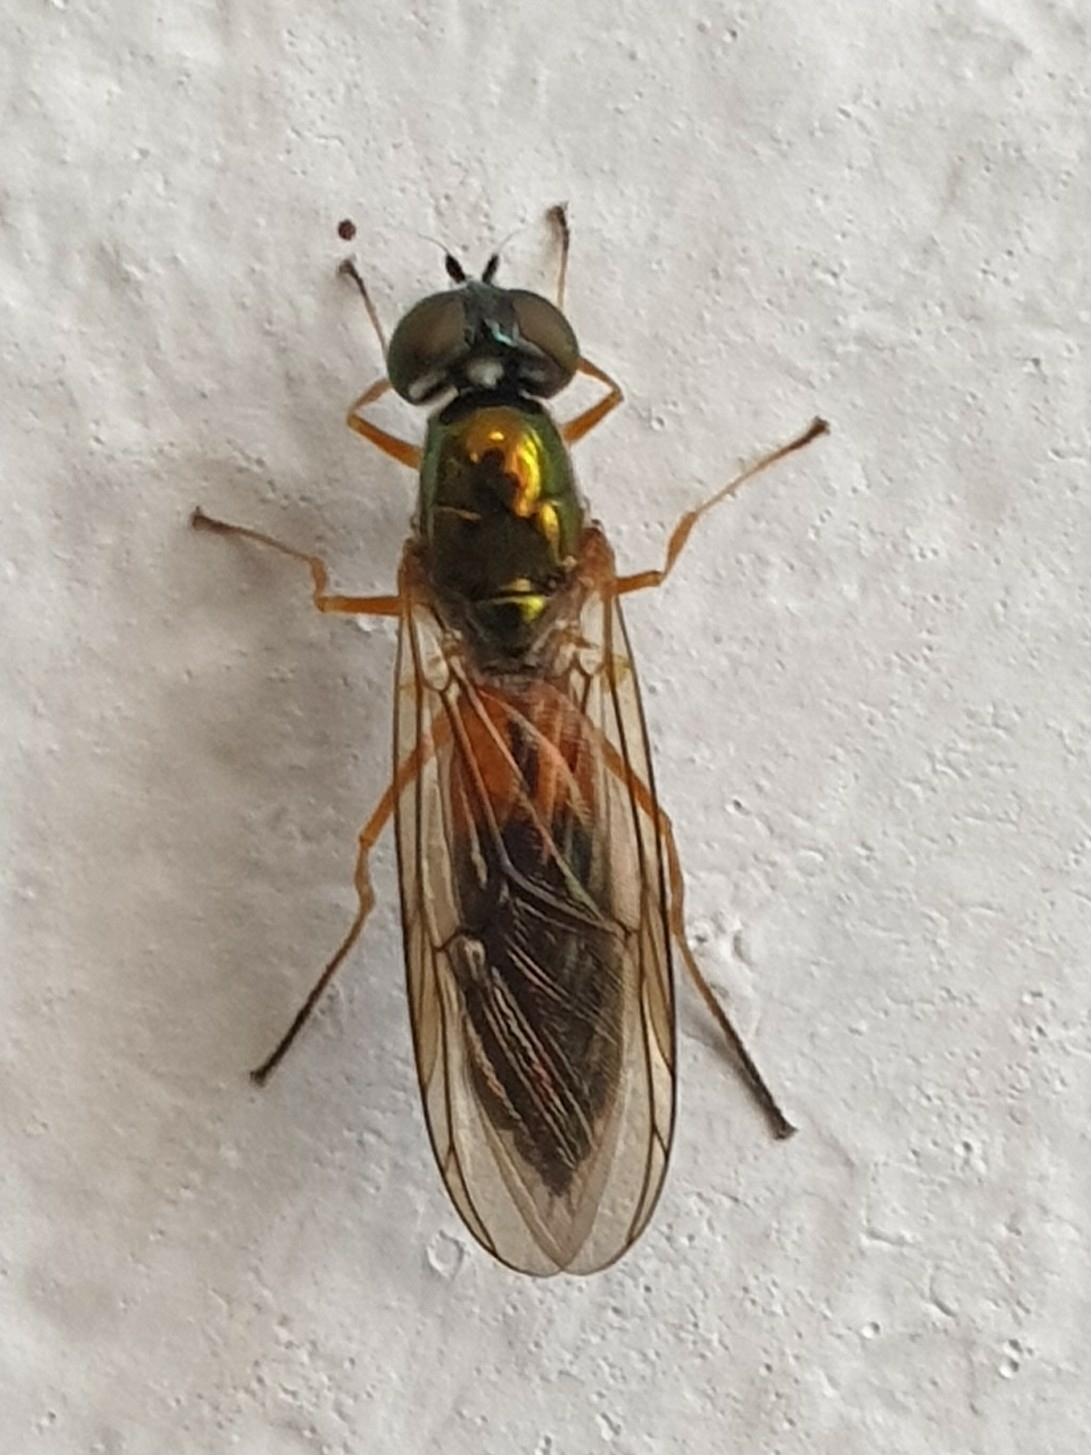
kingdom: Animalia
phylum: Arthropoda
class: Insecta
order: Diptera
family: Stratiomyidae
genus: Sargus
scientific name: Sargus bipunctatus
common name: Twin-spot centurion
